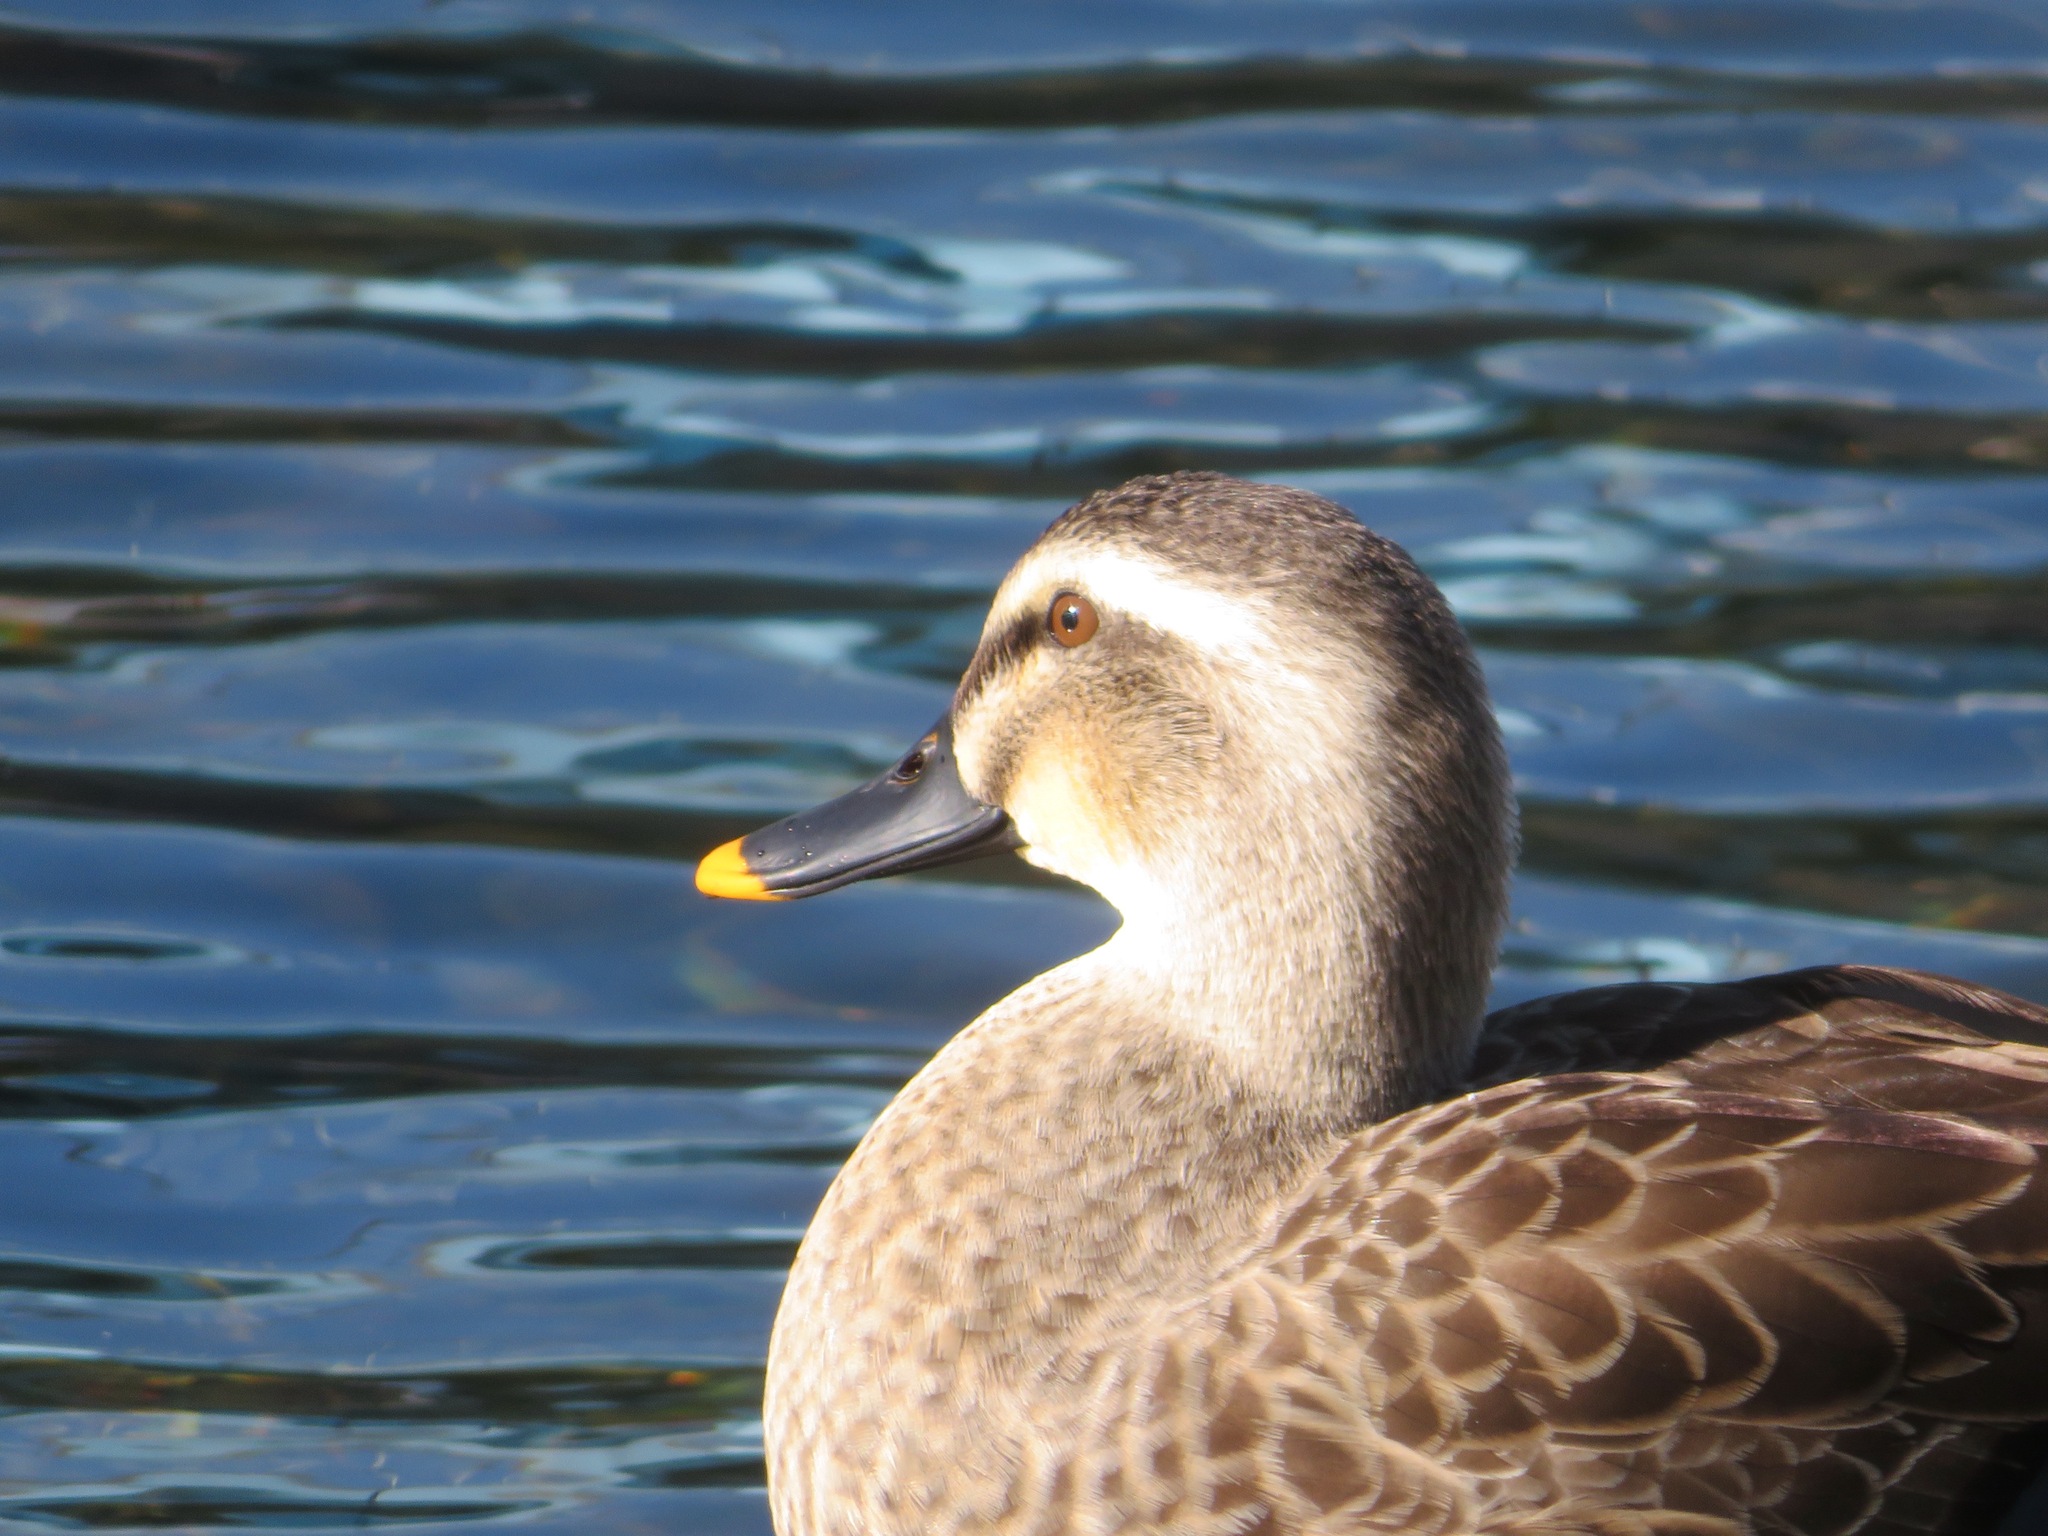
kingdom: Animalia
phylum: Chordata
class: Aves
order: Anseriformes
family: Anatidae
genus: Anas
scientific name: Anas zonorhyncha
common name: Eastern spot-billed duck
